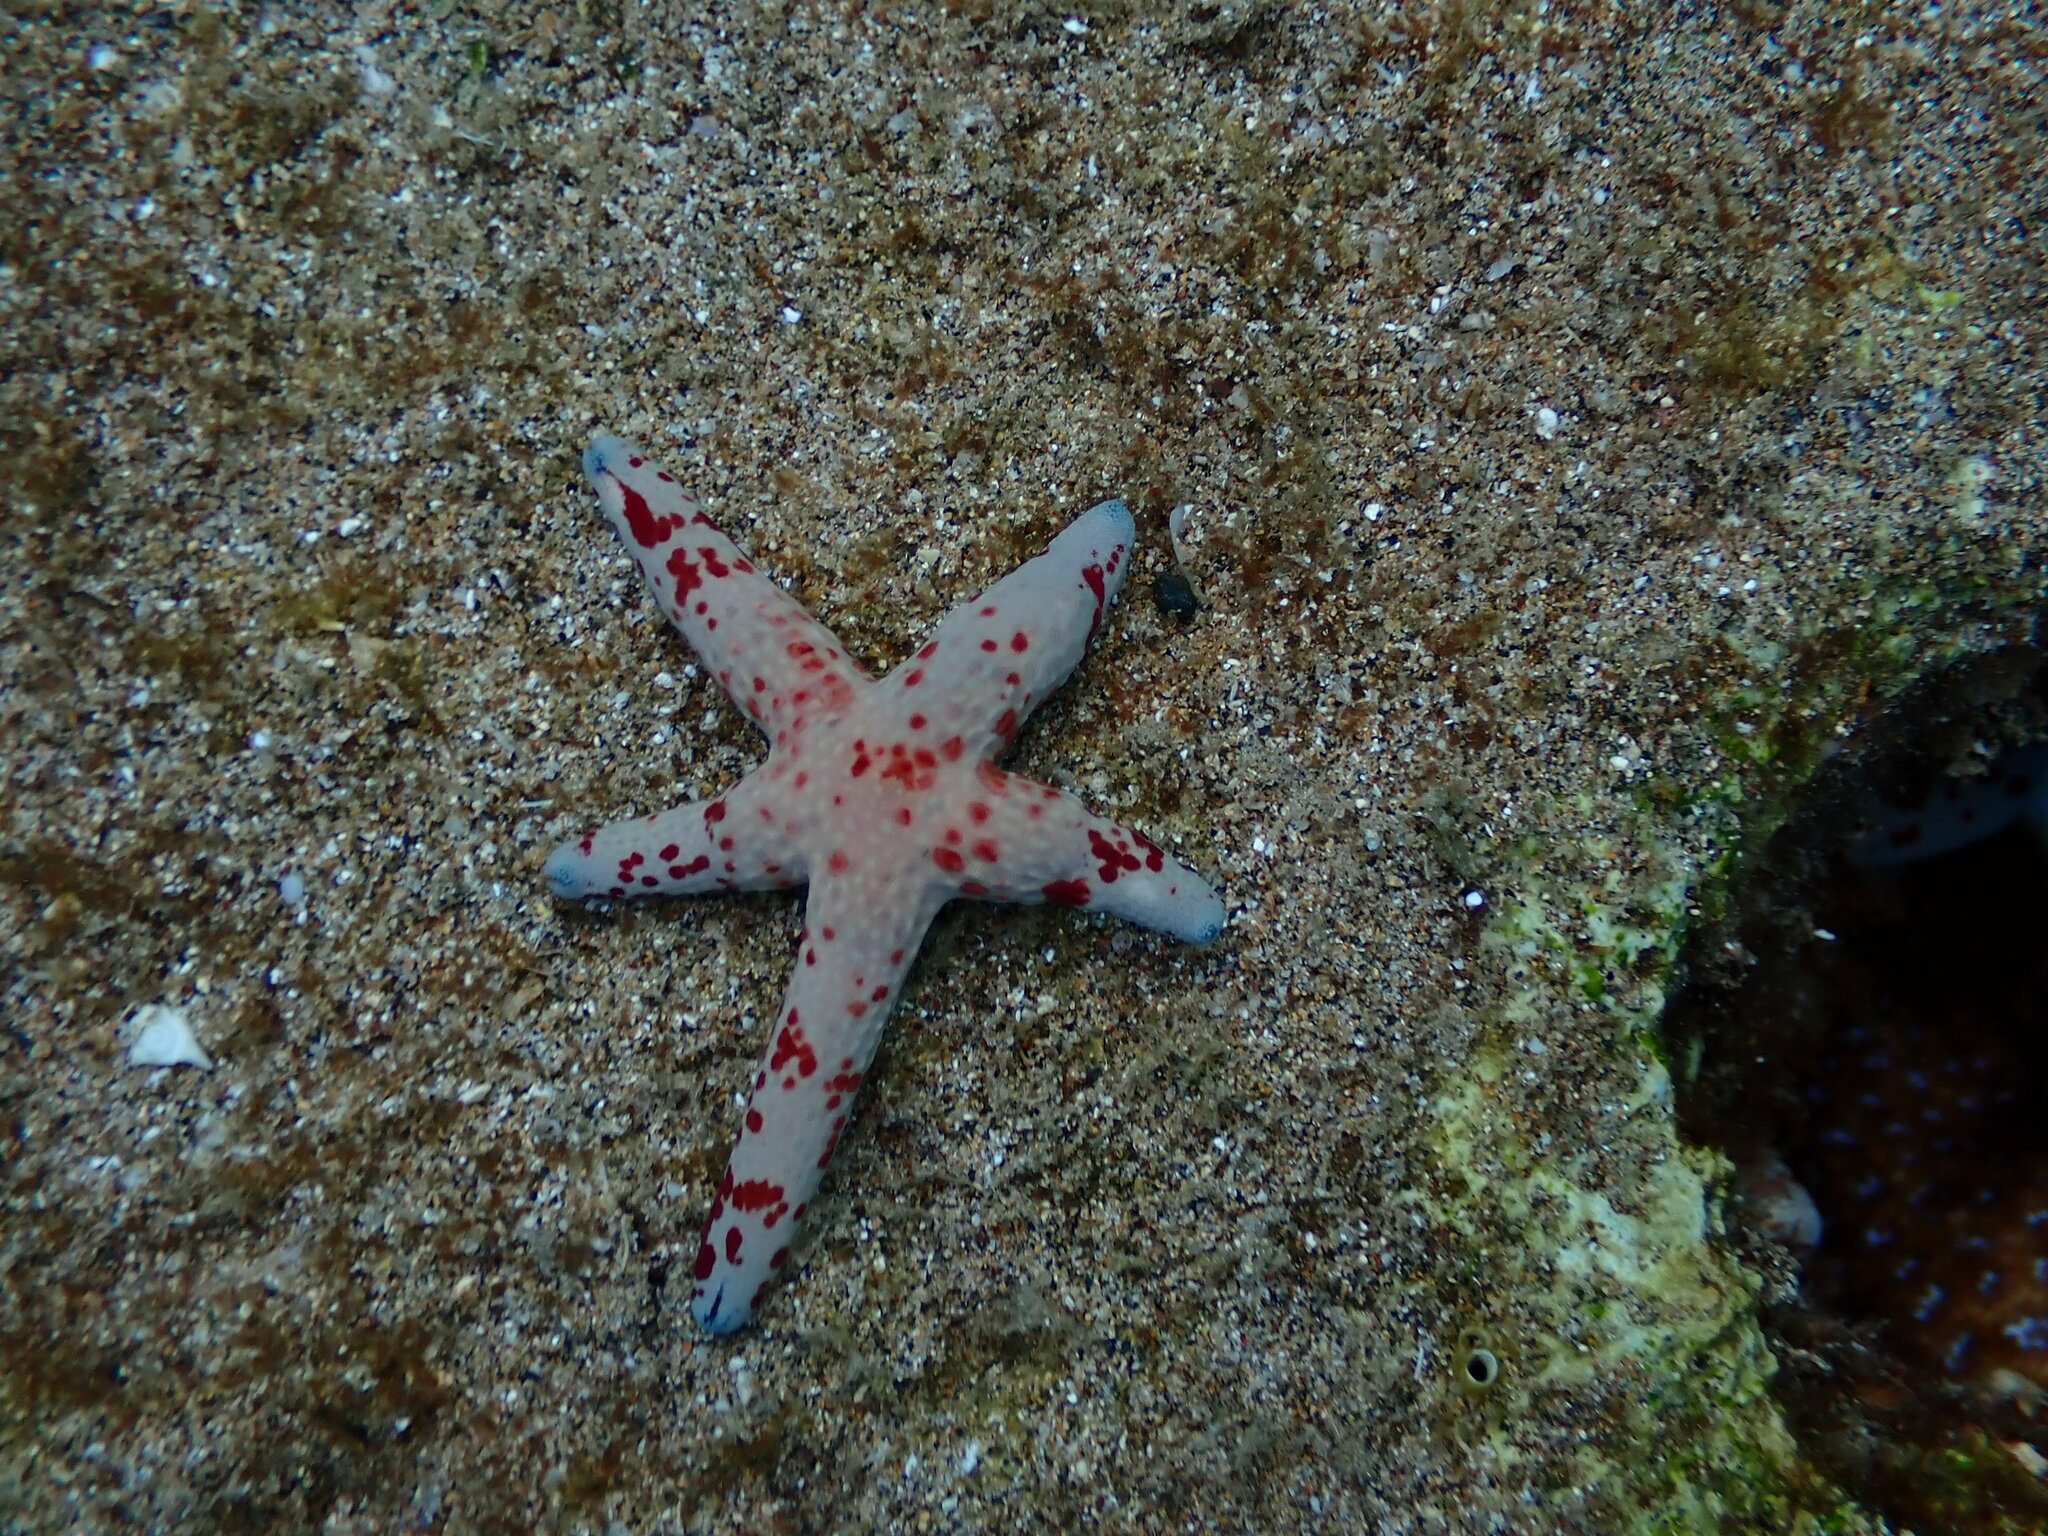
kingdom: Animalia
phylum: Echinodermata
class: Asteroidea
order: Valvatida
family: Ophidiasteridae
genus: Linckia
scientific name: Linckia multifora
